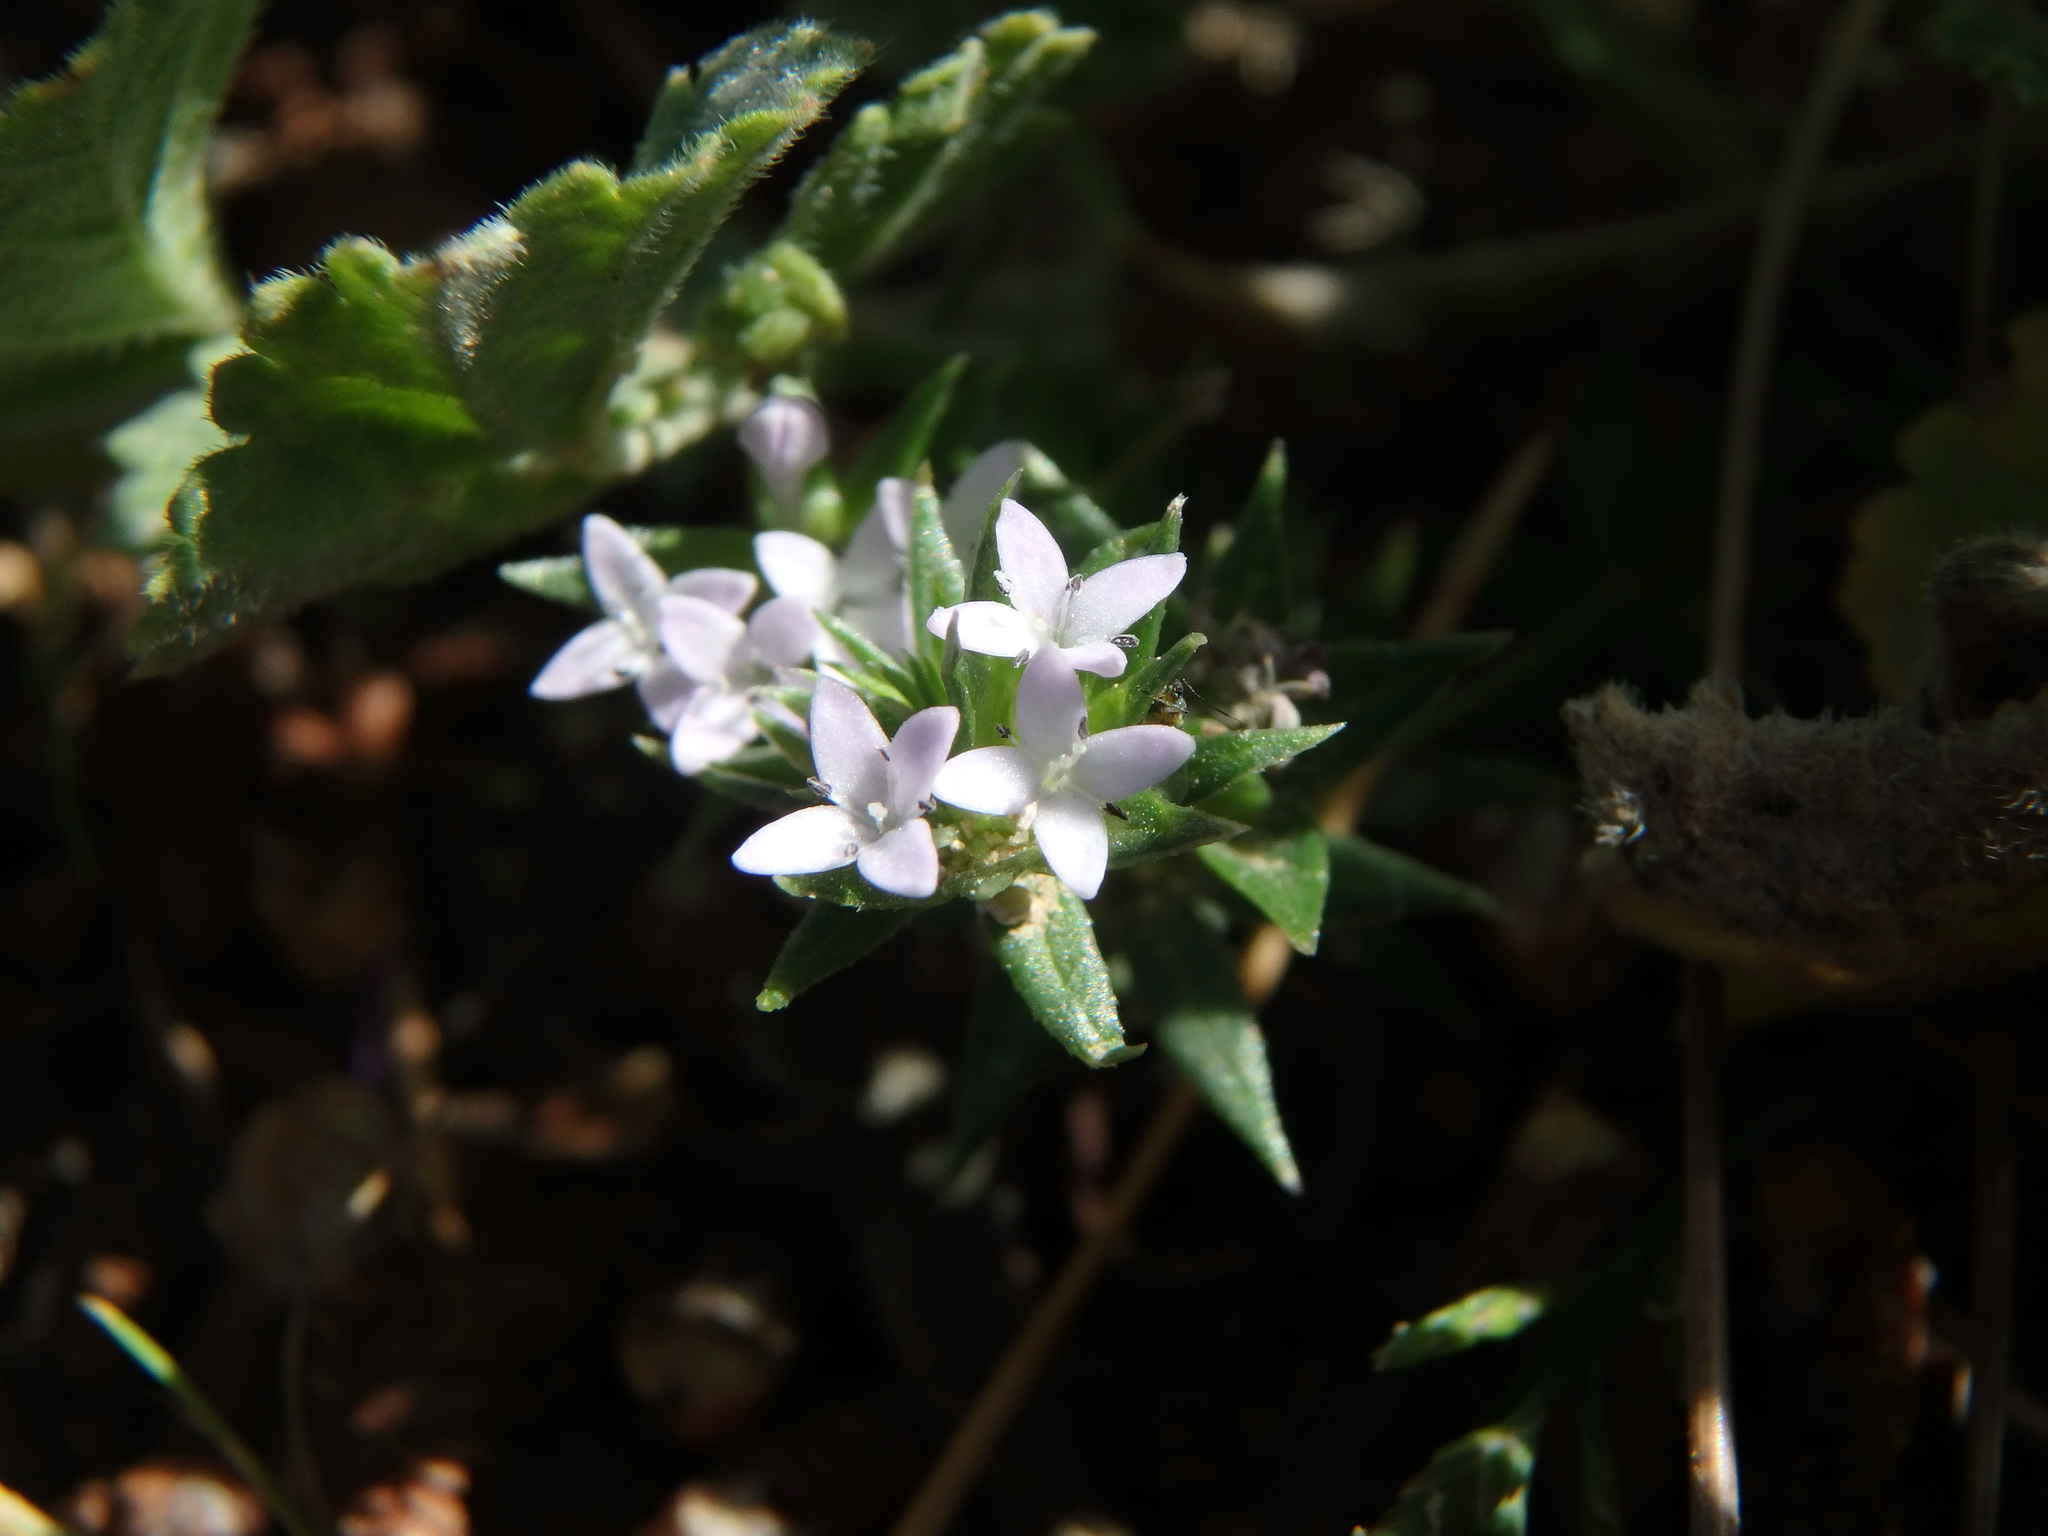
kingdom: Plantae
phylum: Tracheophyta
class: Magnoliopsida
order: Gentianales
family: Rubiaceae
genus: Sherardia
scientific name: Sherardia arvensis
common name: Field madder
